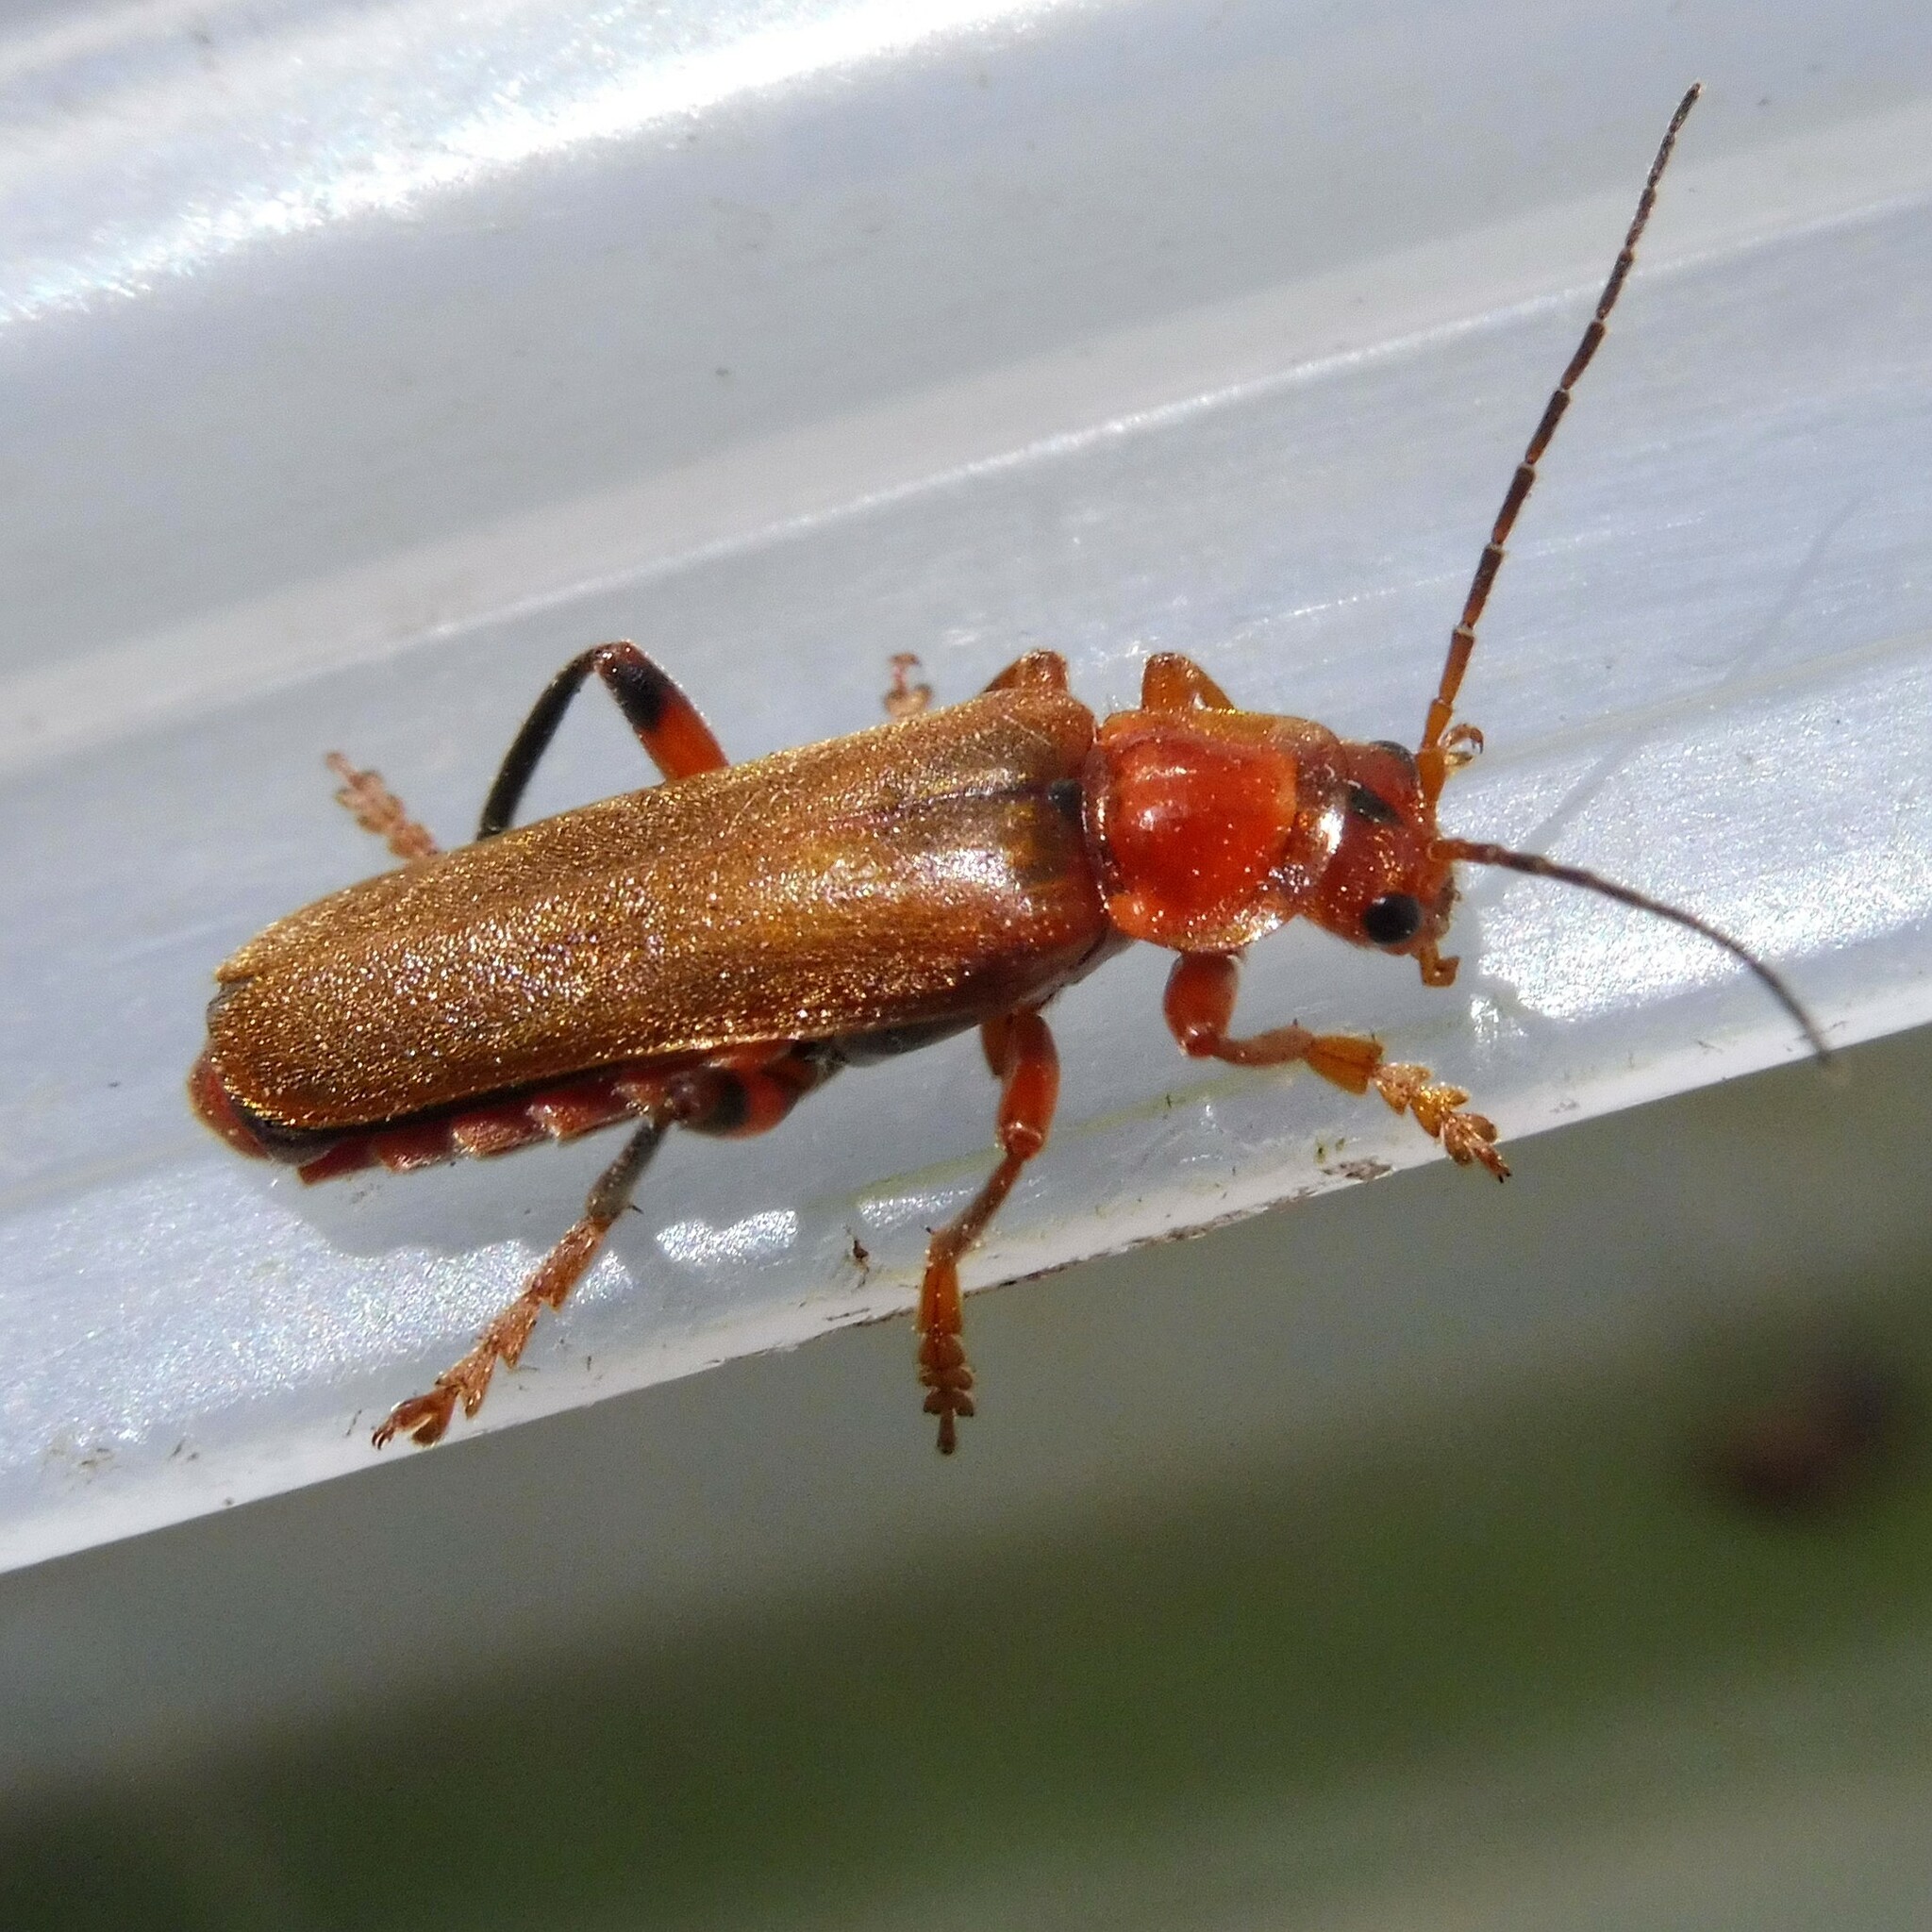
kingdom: Animalia
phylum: Arthropoda
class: Insecta
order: Coleoptera
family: Cantharidae
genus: Cantharis
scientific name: Cantharis livida
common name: Livid soldier beetle
